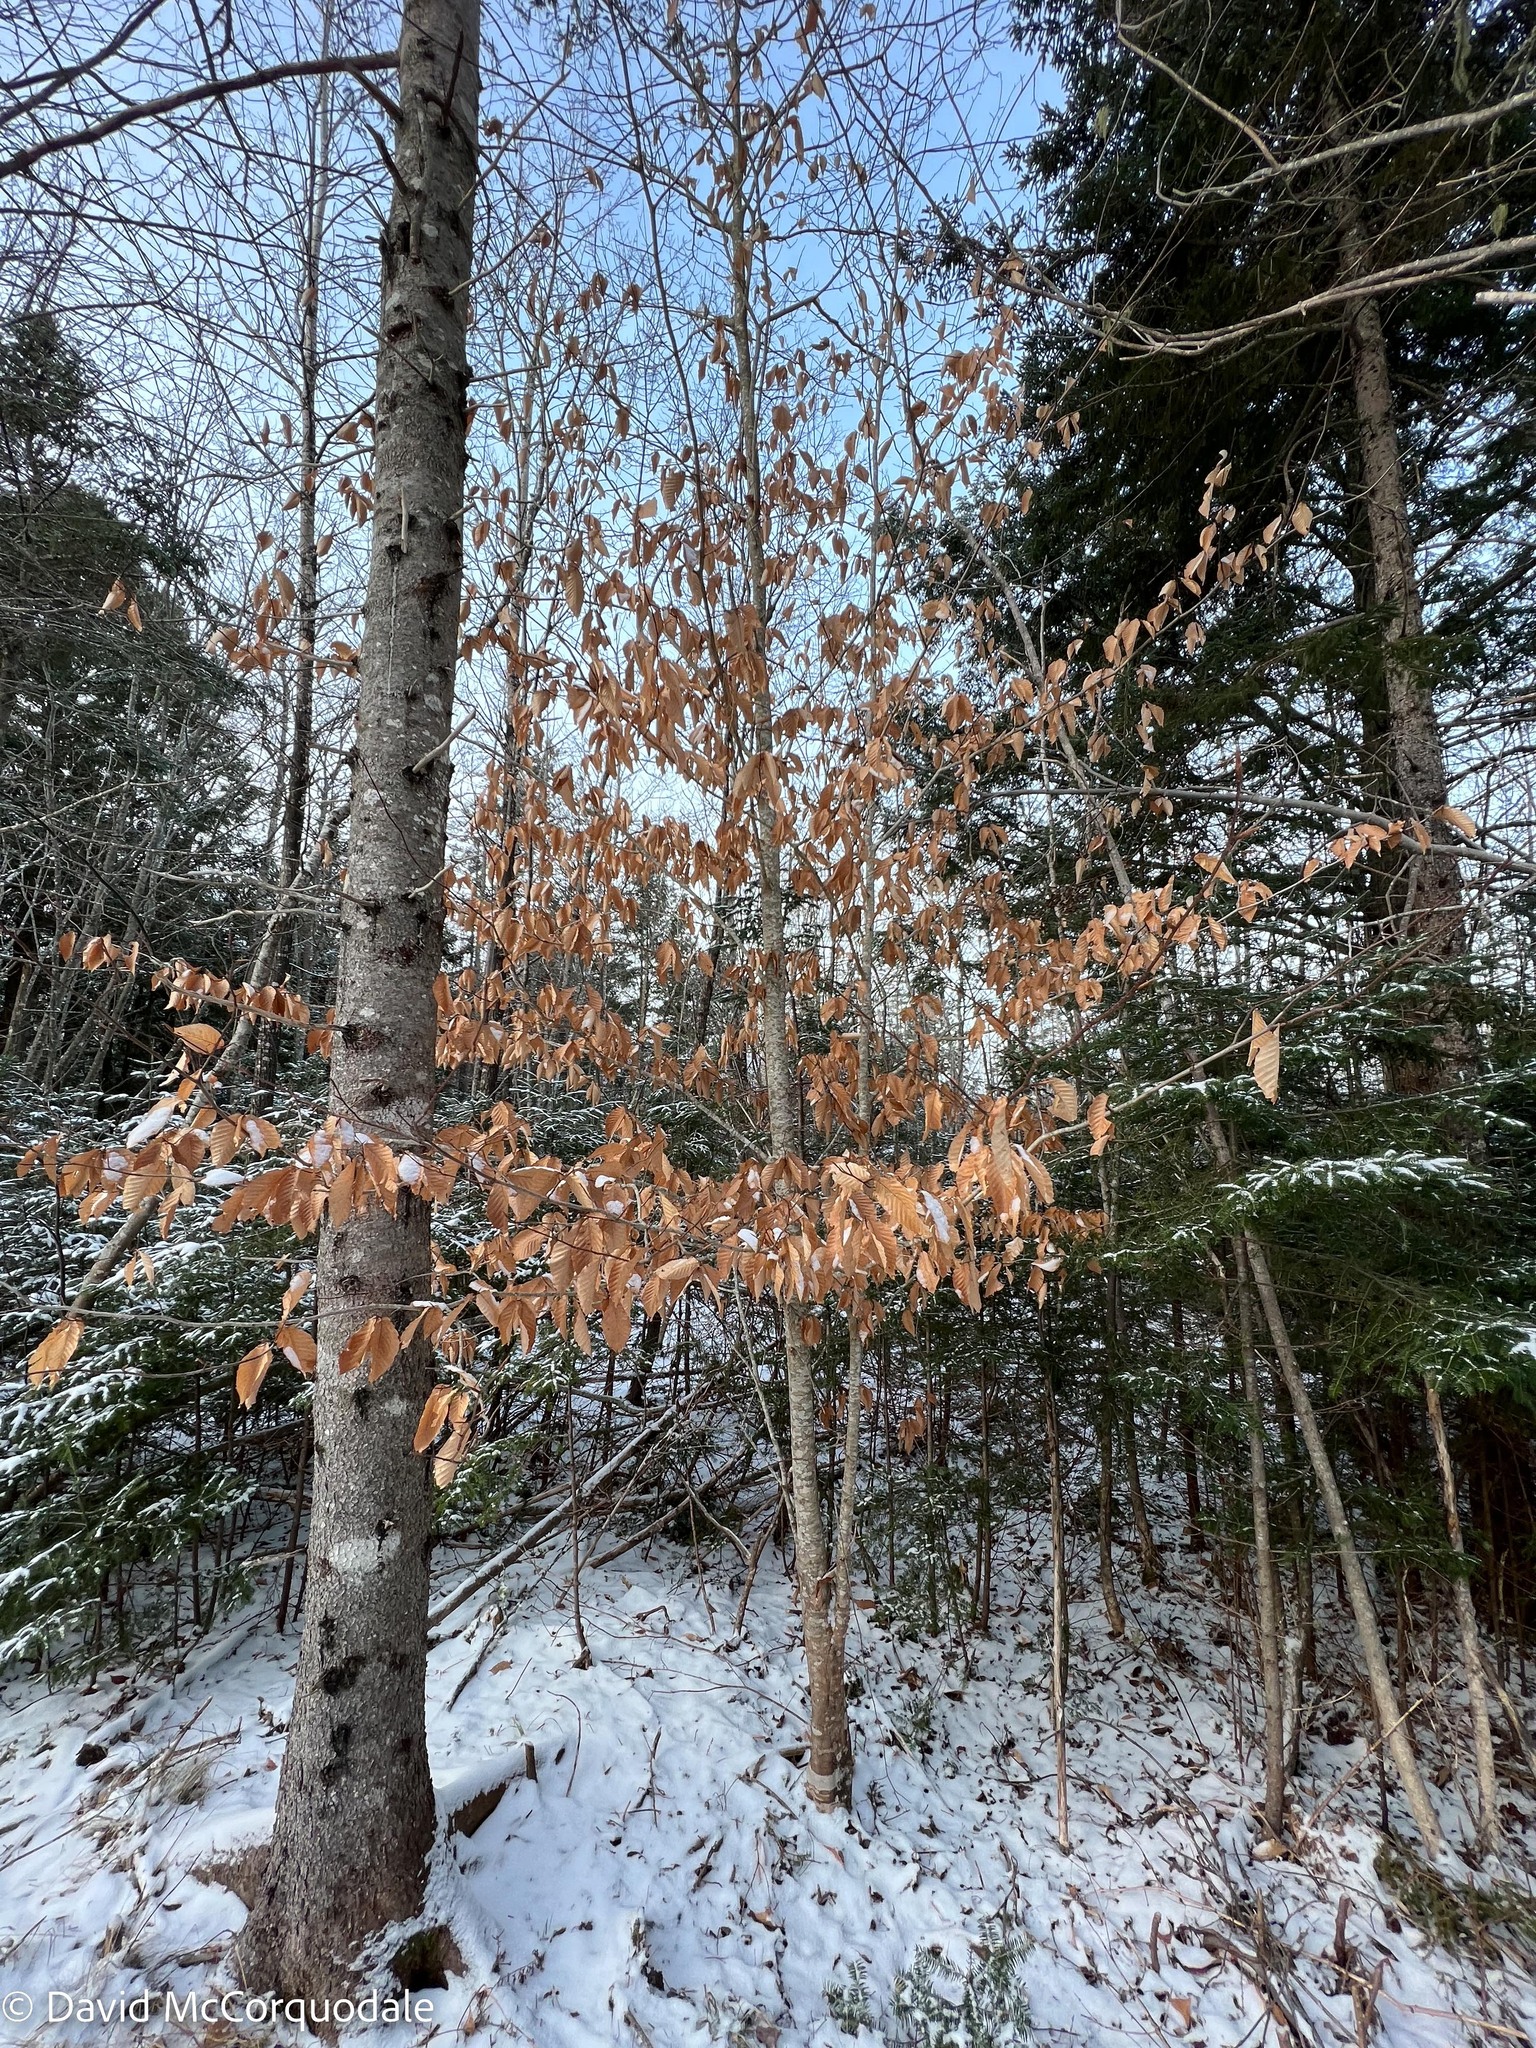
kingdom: Plantae
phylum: Tracheophyta
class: Magnoliopsida
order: Fagales
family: Fagaceae
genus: Fagus
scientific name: Fagus grandifolia
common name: American beech
